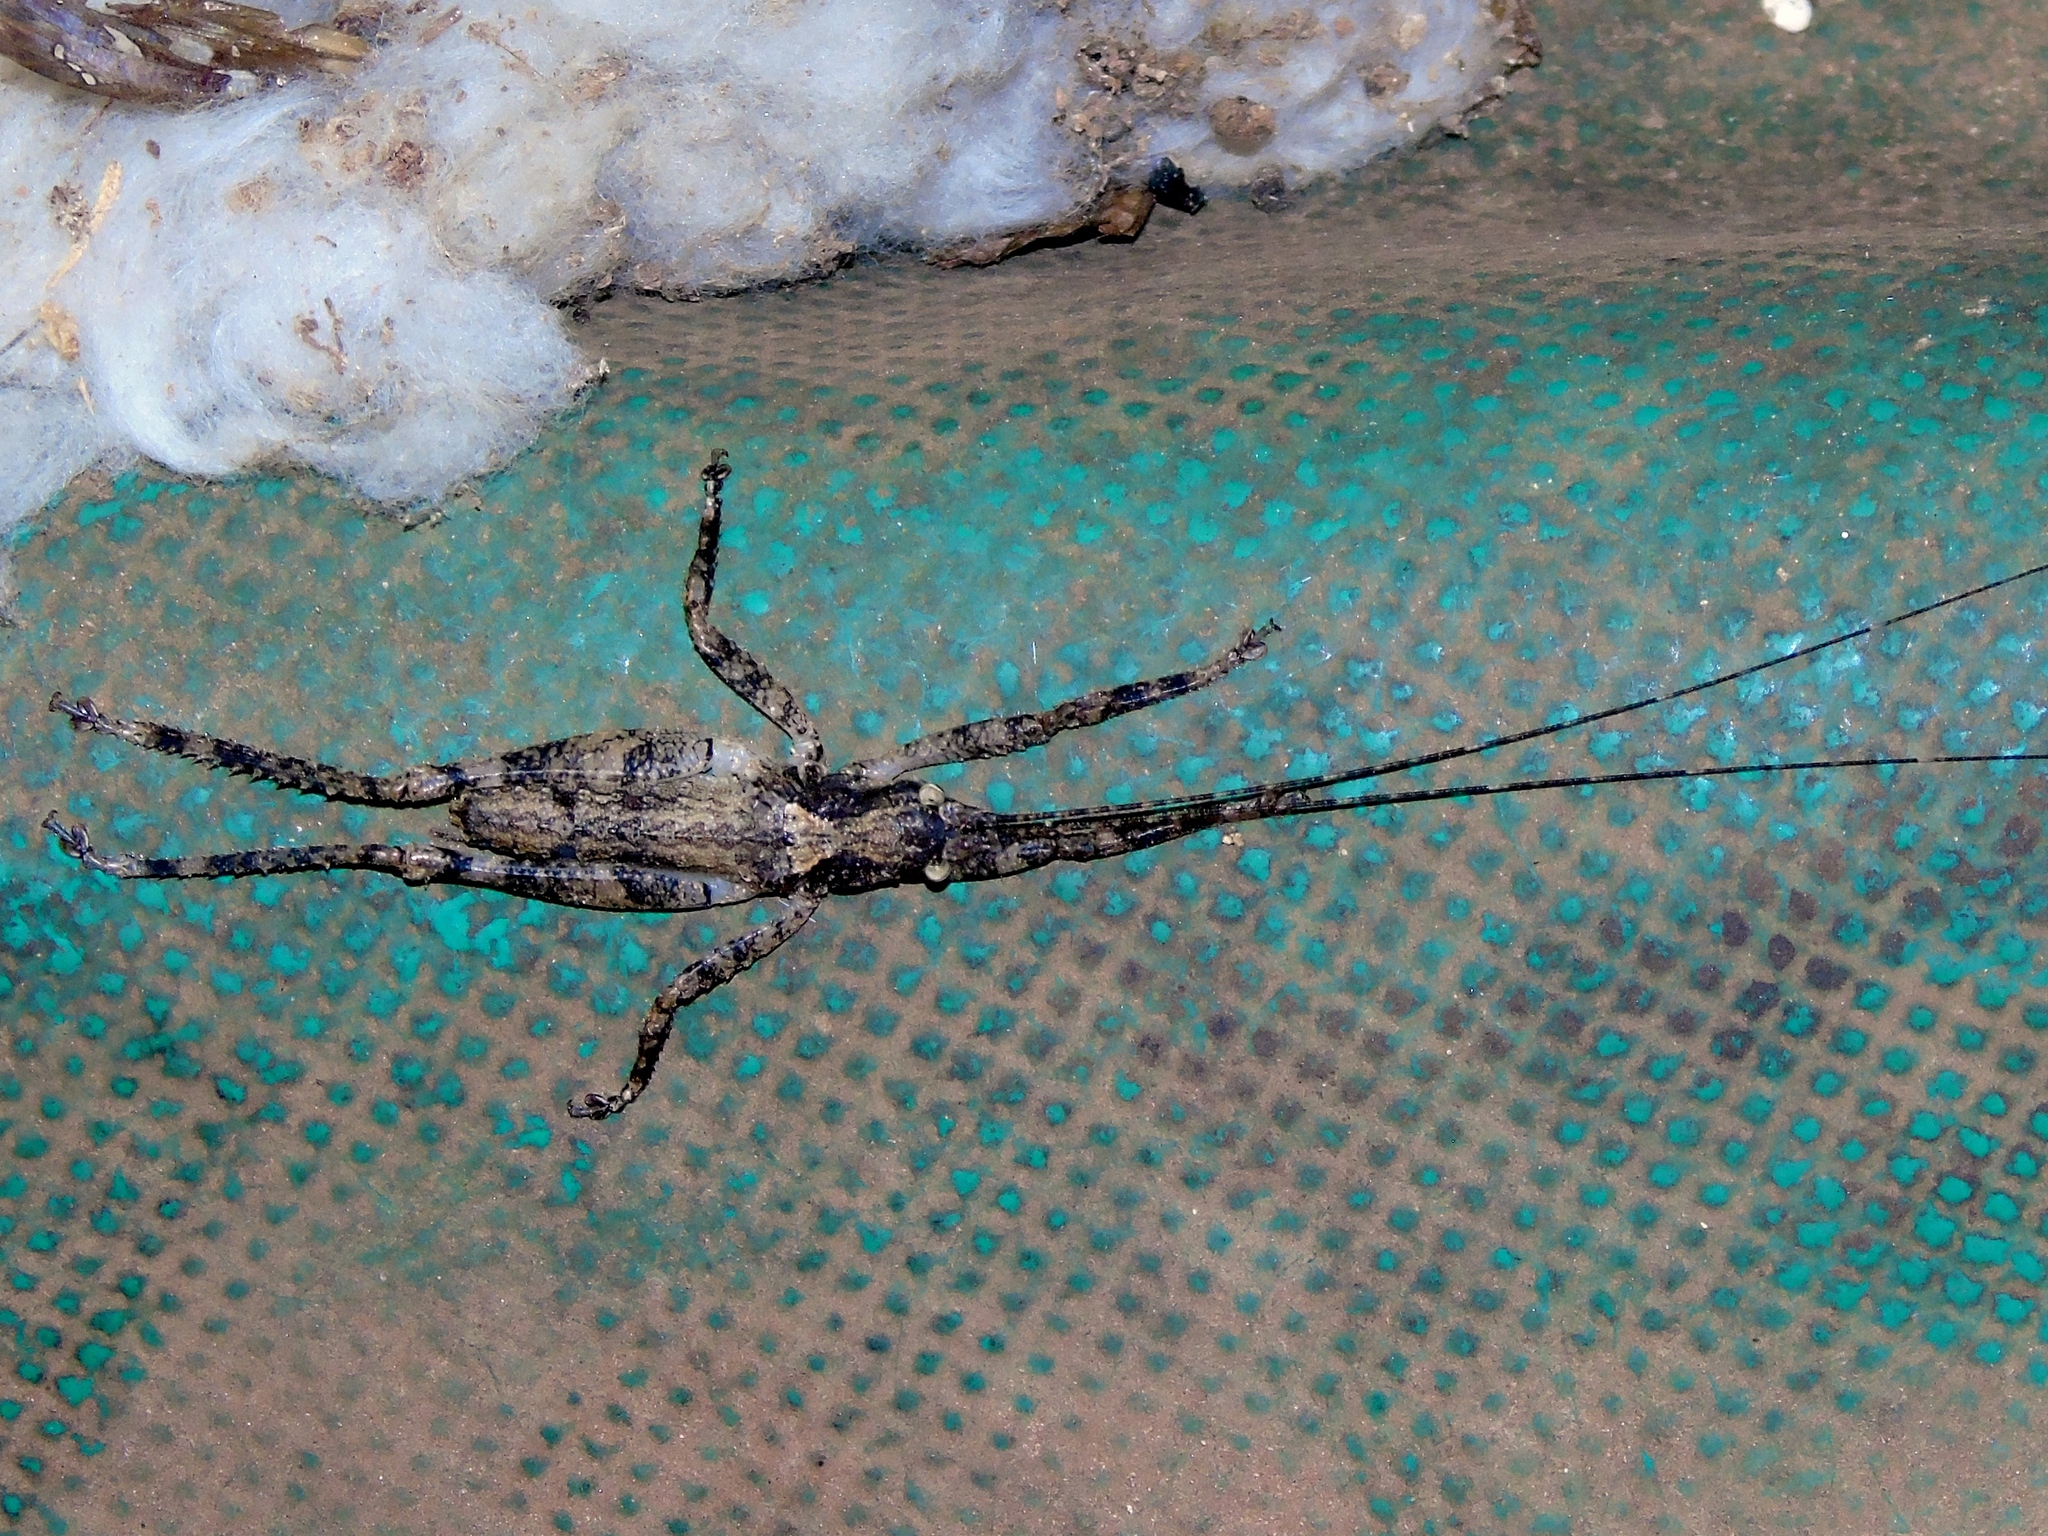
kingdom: Animalia
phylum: Arthropoda
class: Insecta
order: Orthoptera
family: Tettigoniidae
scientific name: Tettigoniidae
